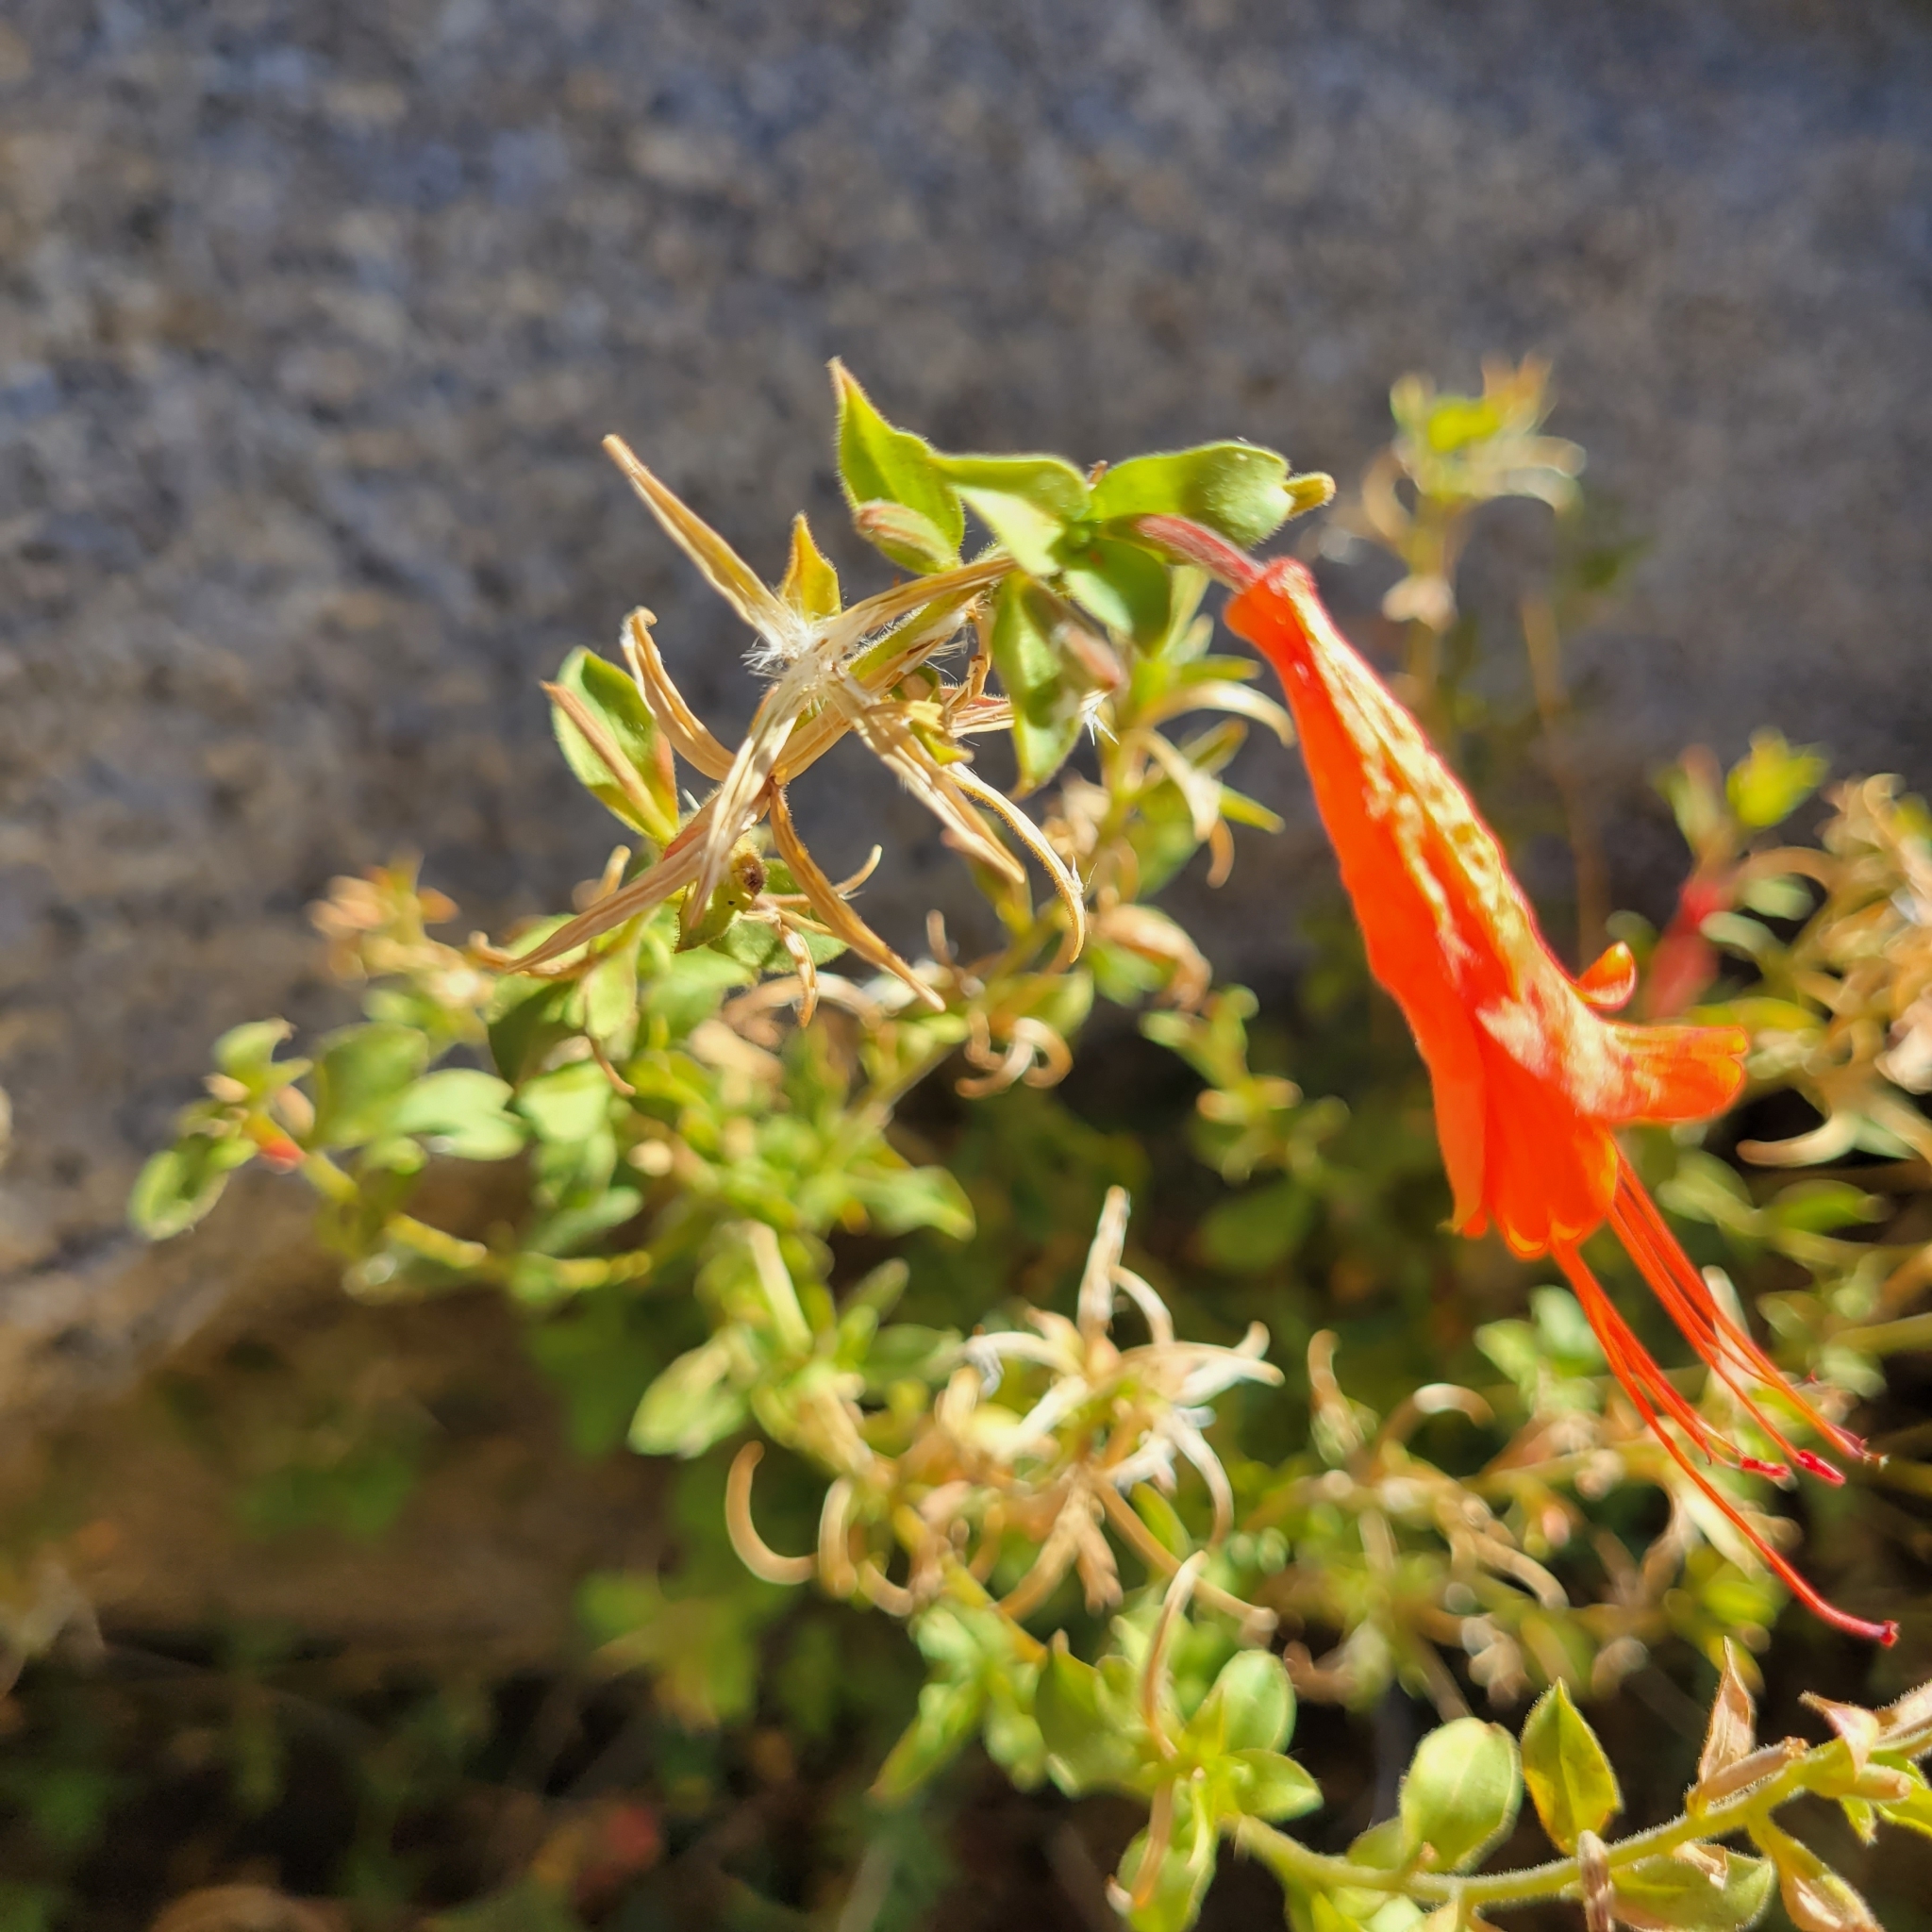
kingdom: Plantae
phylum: Tracheophyta
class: Magnoliopsida
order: Myrtales
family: Onagraceae
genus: Epilobium
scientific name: Epilobium canum
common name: California-fuchsia
